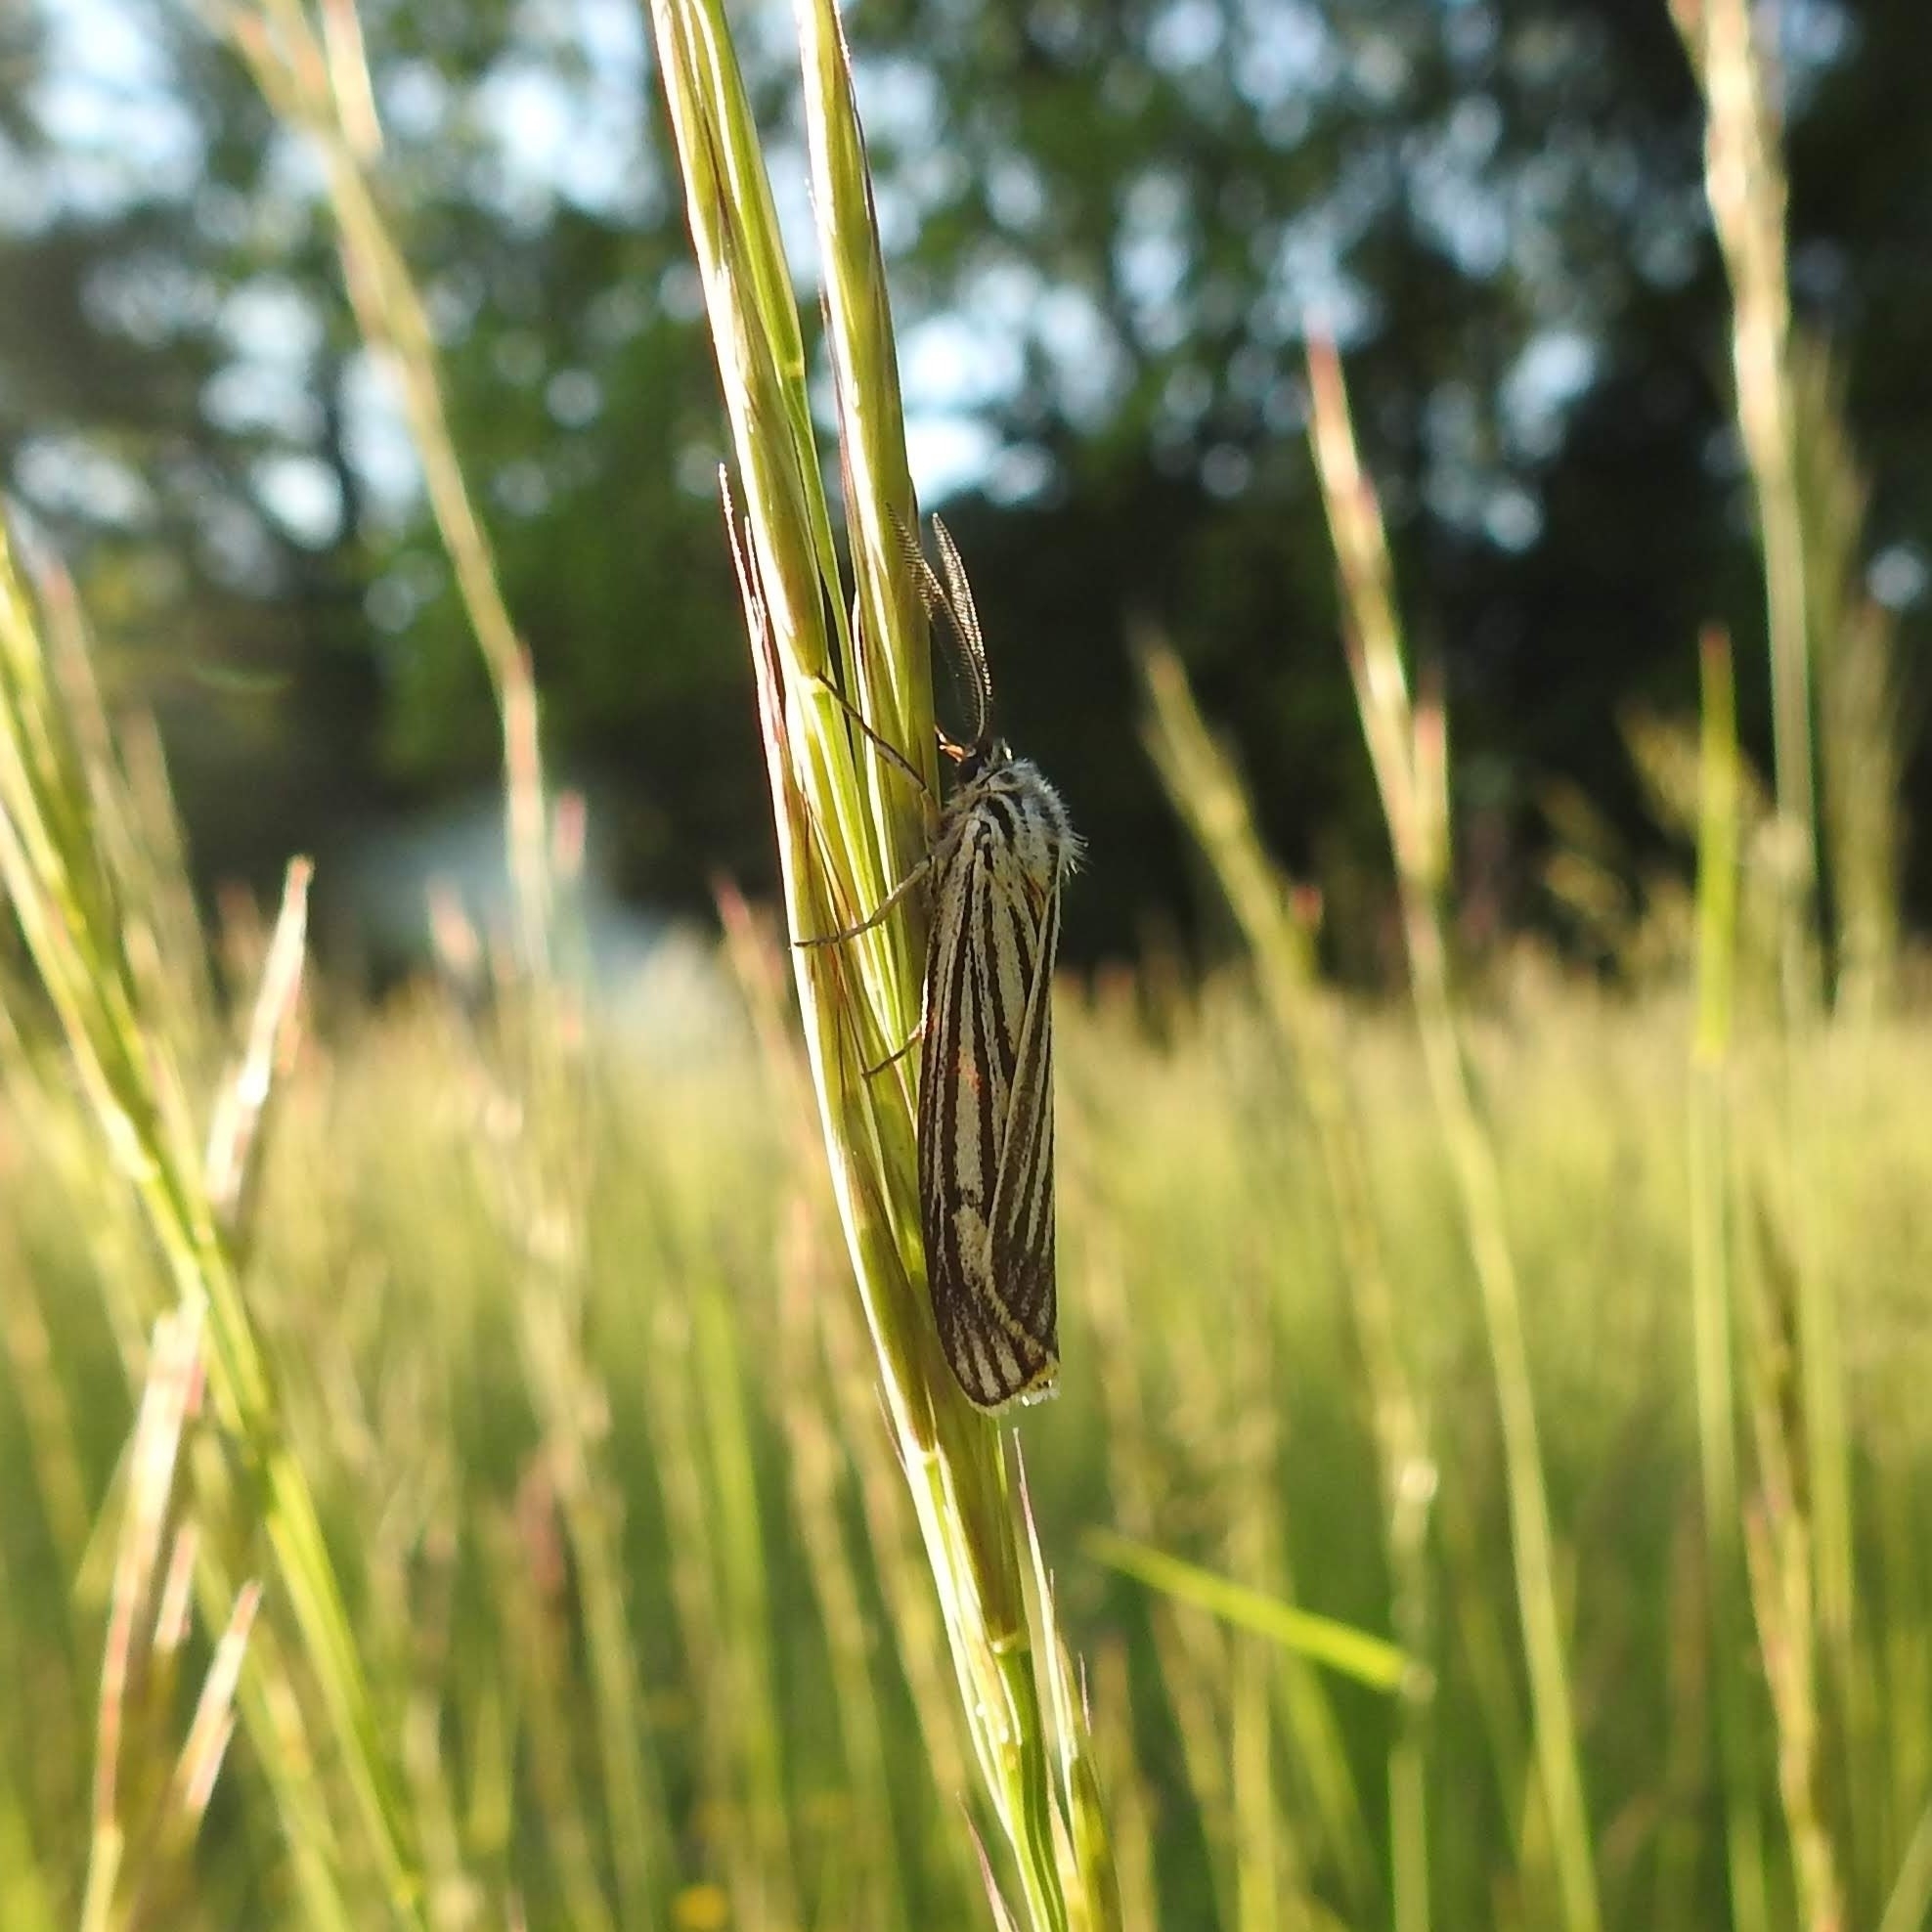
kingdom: Animalia
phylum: Arthropoda
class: Insecta
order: Lepidoptera
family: Erebidae
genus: Coscinia
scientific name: Coscinia Spiris striata
